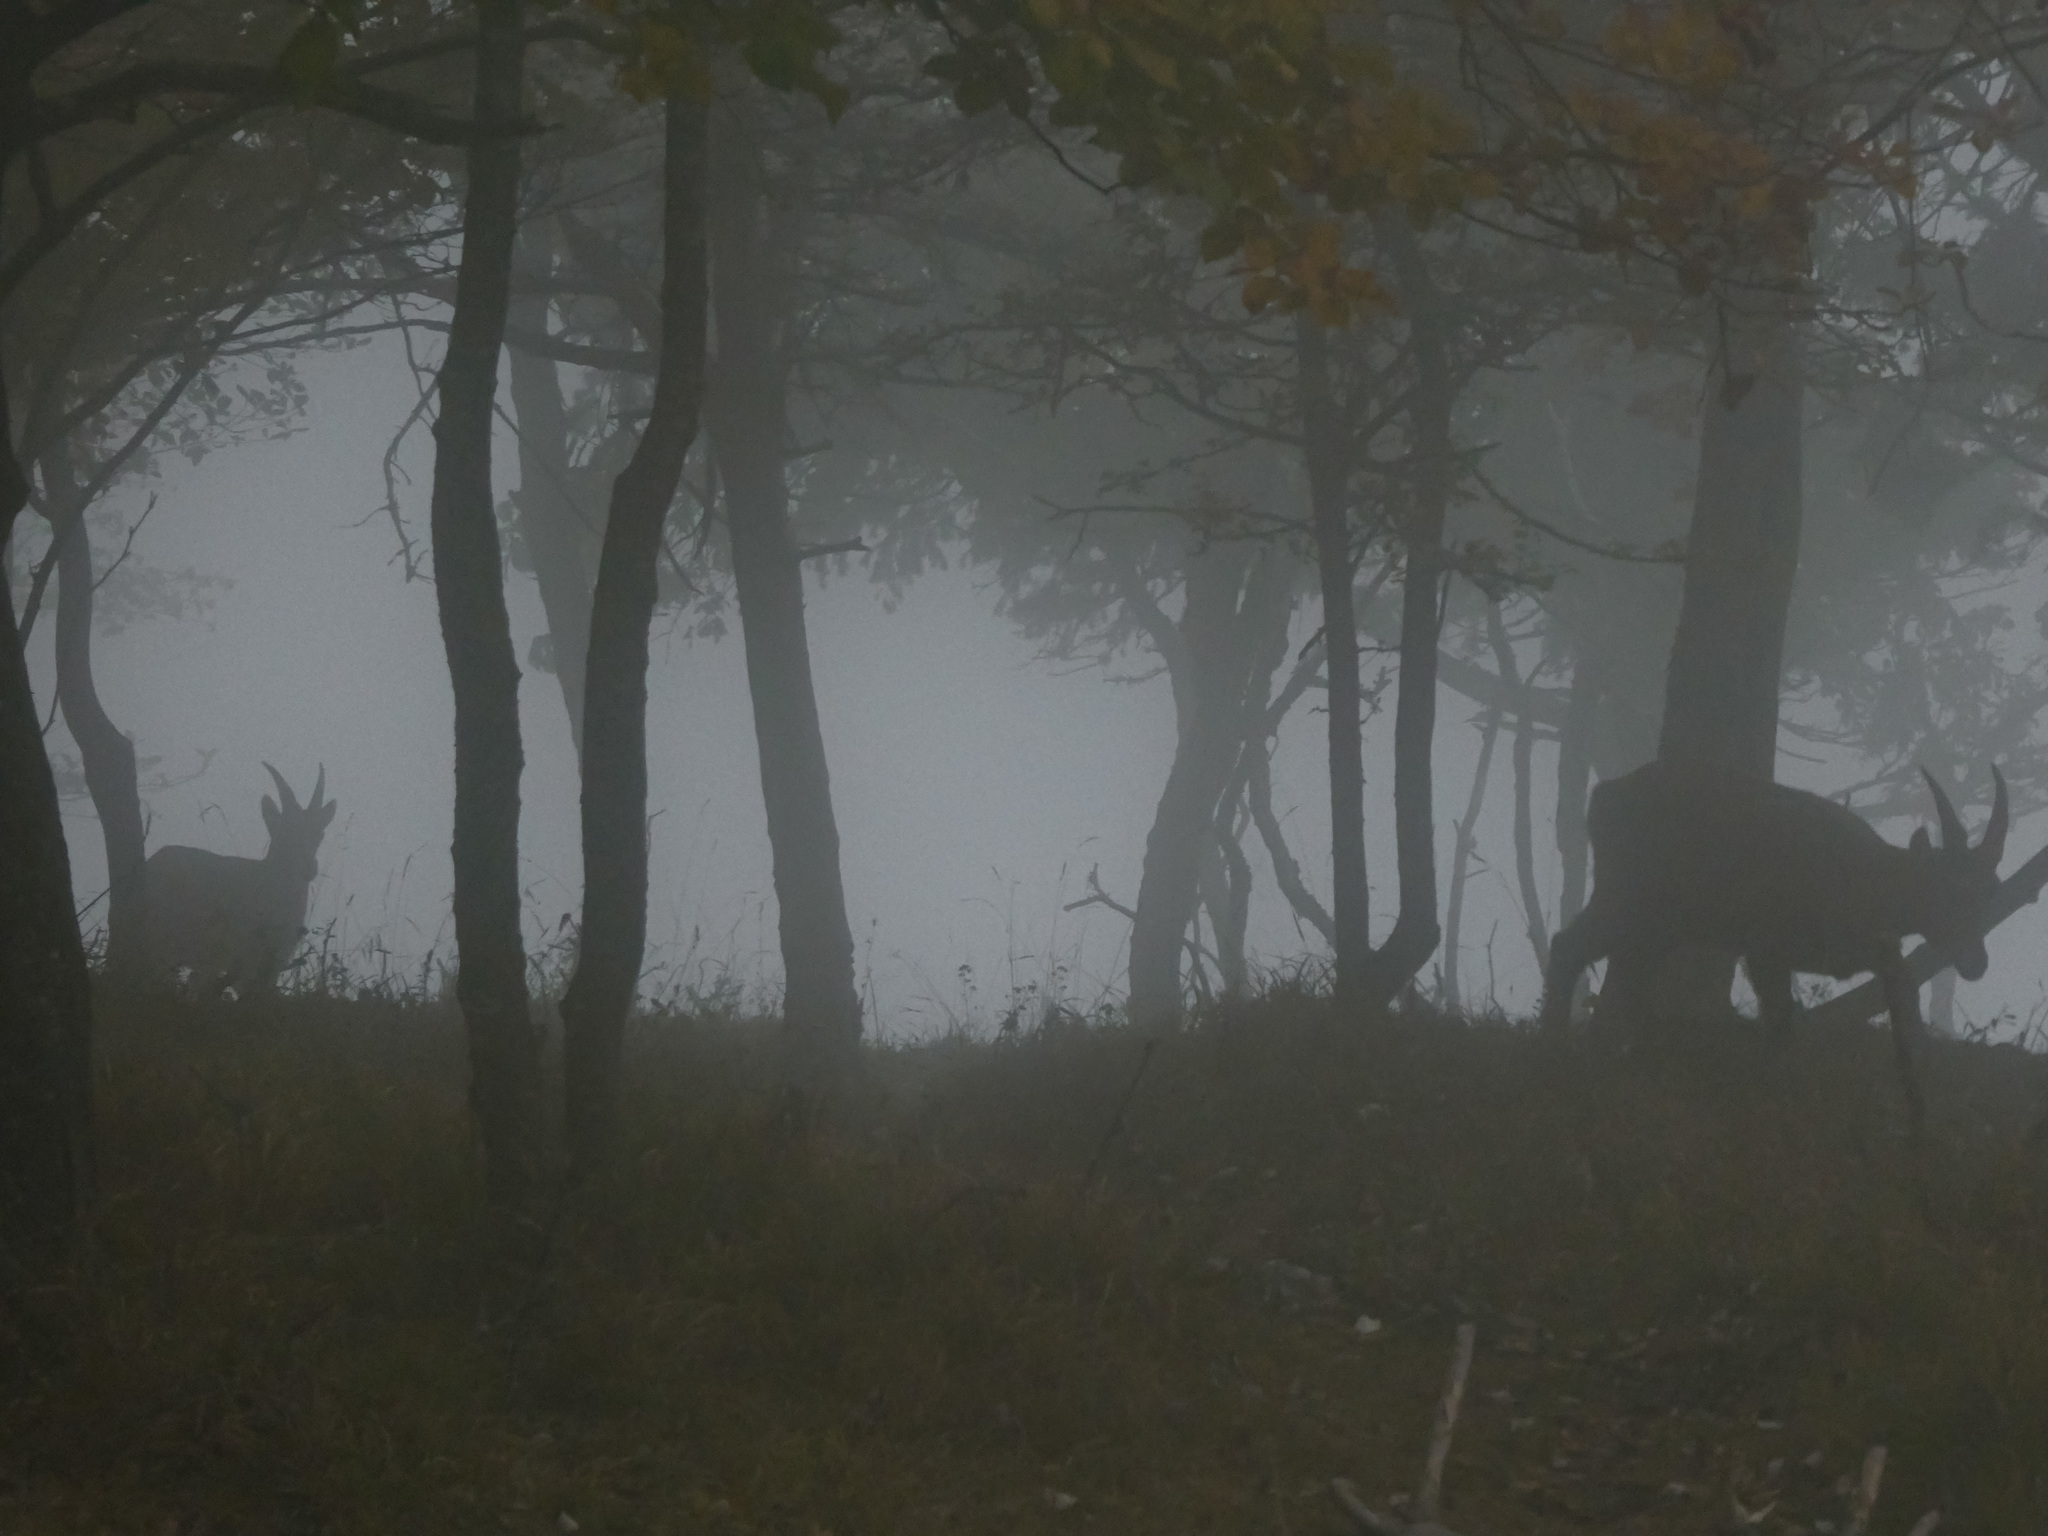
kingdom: Animalia
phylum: Chordata
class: Mammalia
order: Artiodactyla
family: Bovidae
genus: Capra
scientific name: Capra ibex
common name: Alpine ibex
